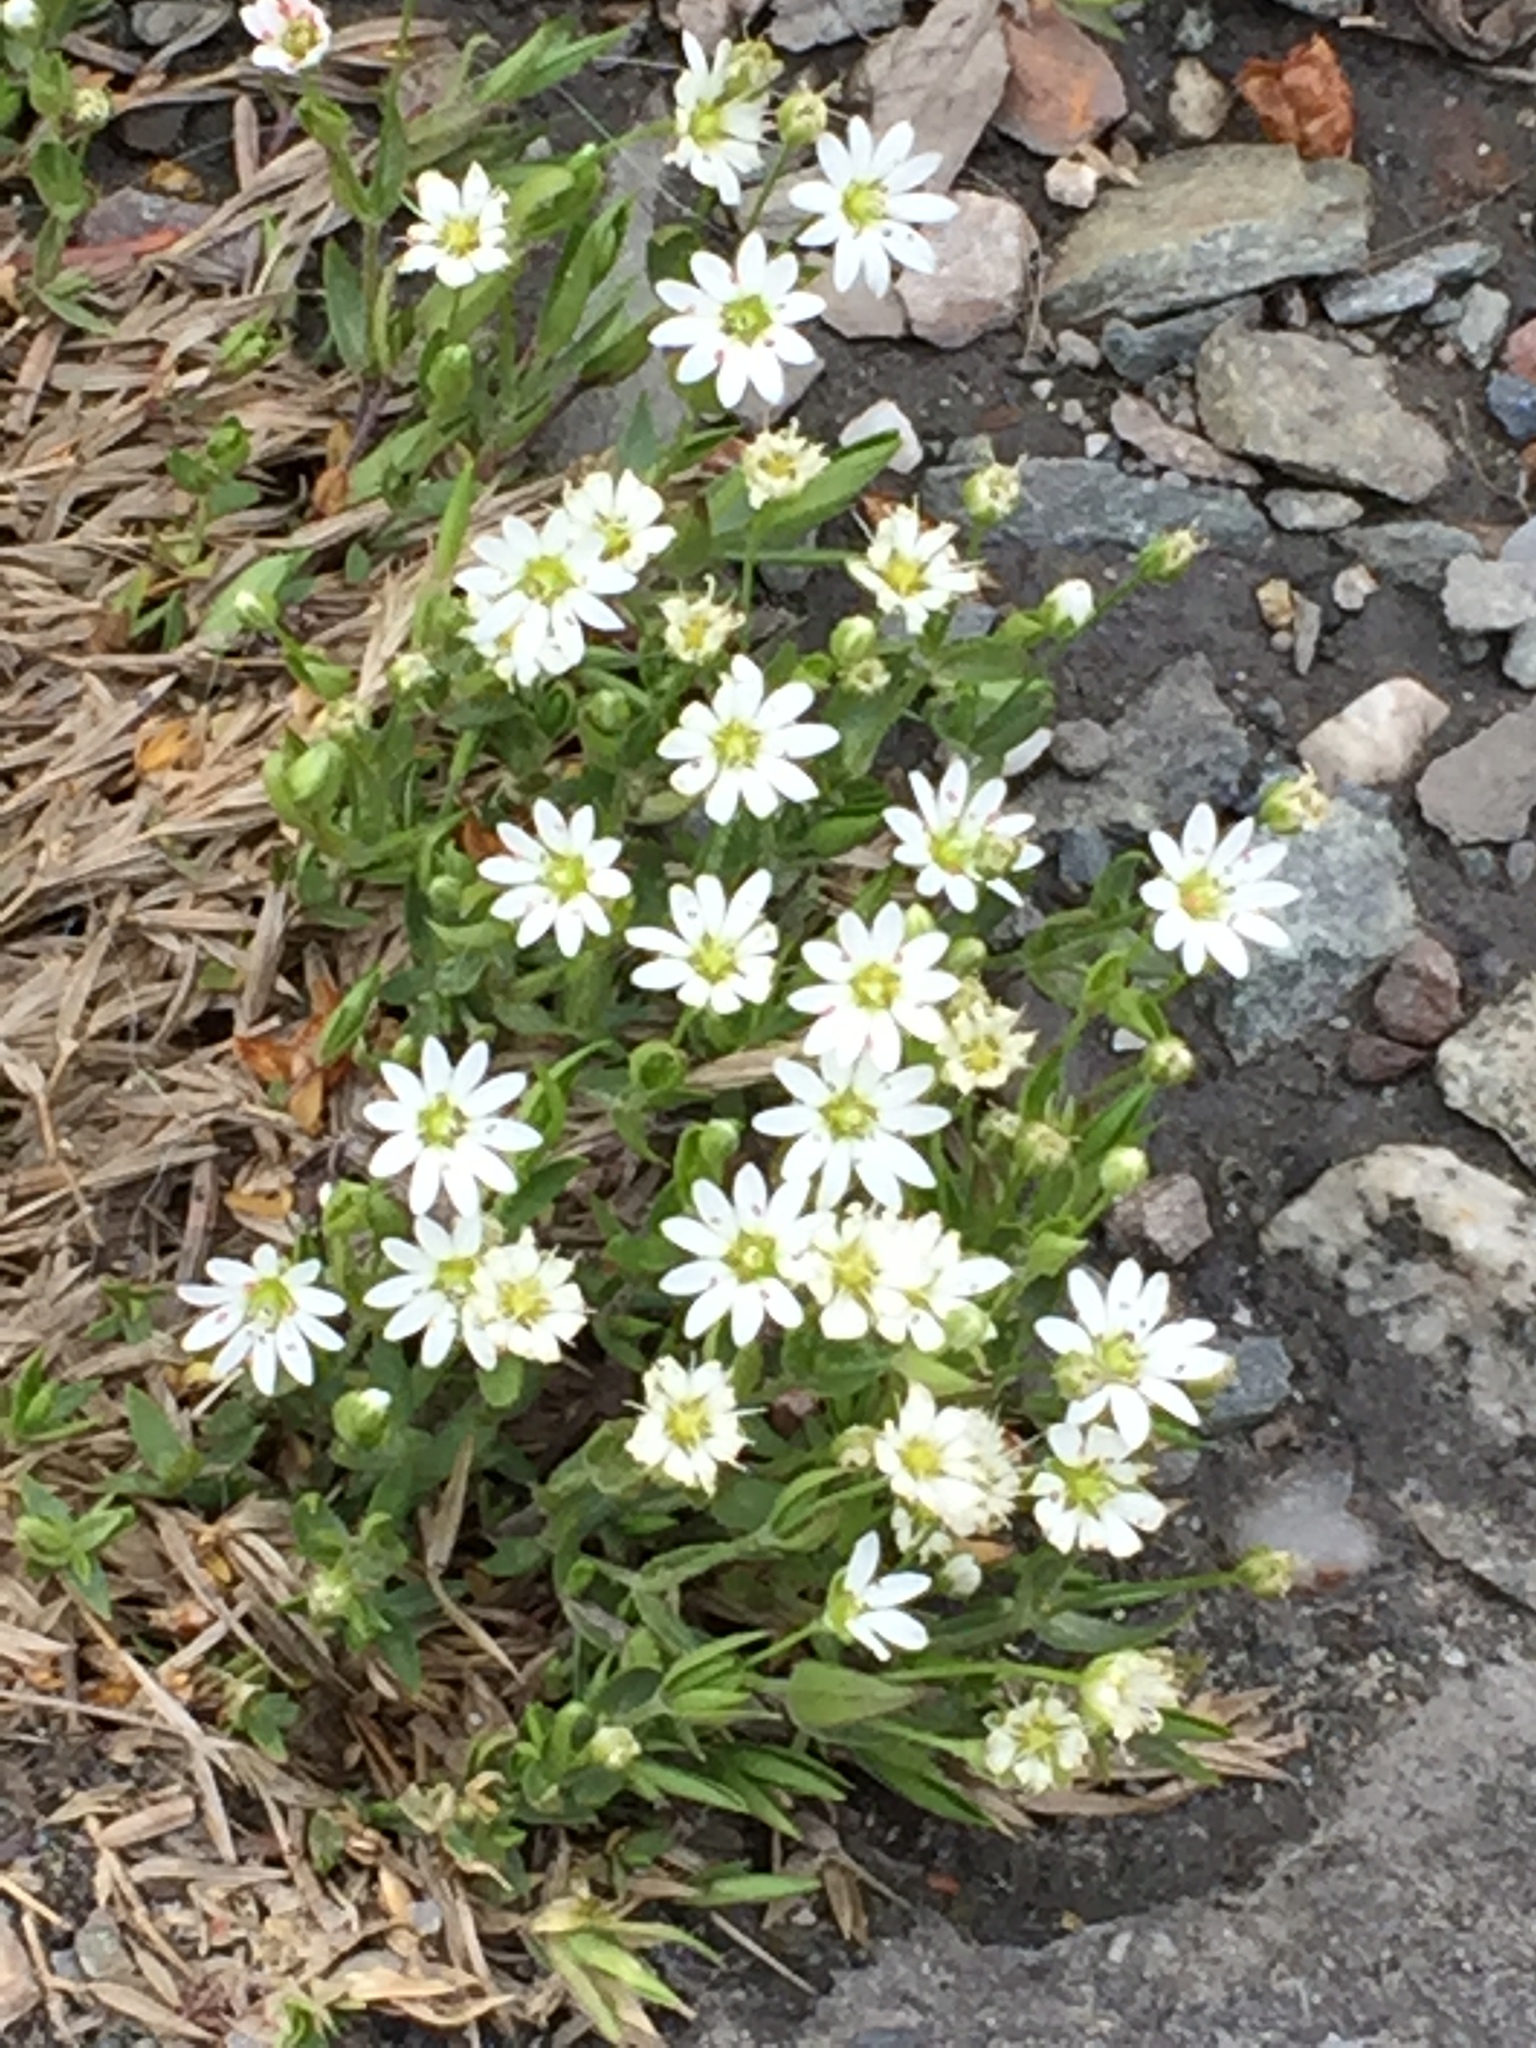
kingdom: Plantae
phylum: Tracheophyta
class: Magnoliopsida
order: Caryophyllales
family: Caryophyllaceae
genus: Stellaria
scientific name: Stellaria longipes
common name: Goldie's starwort
